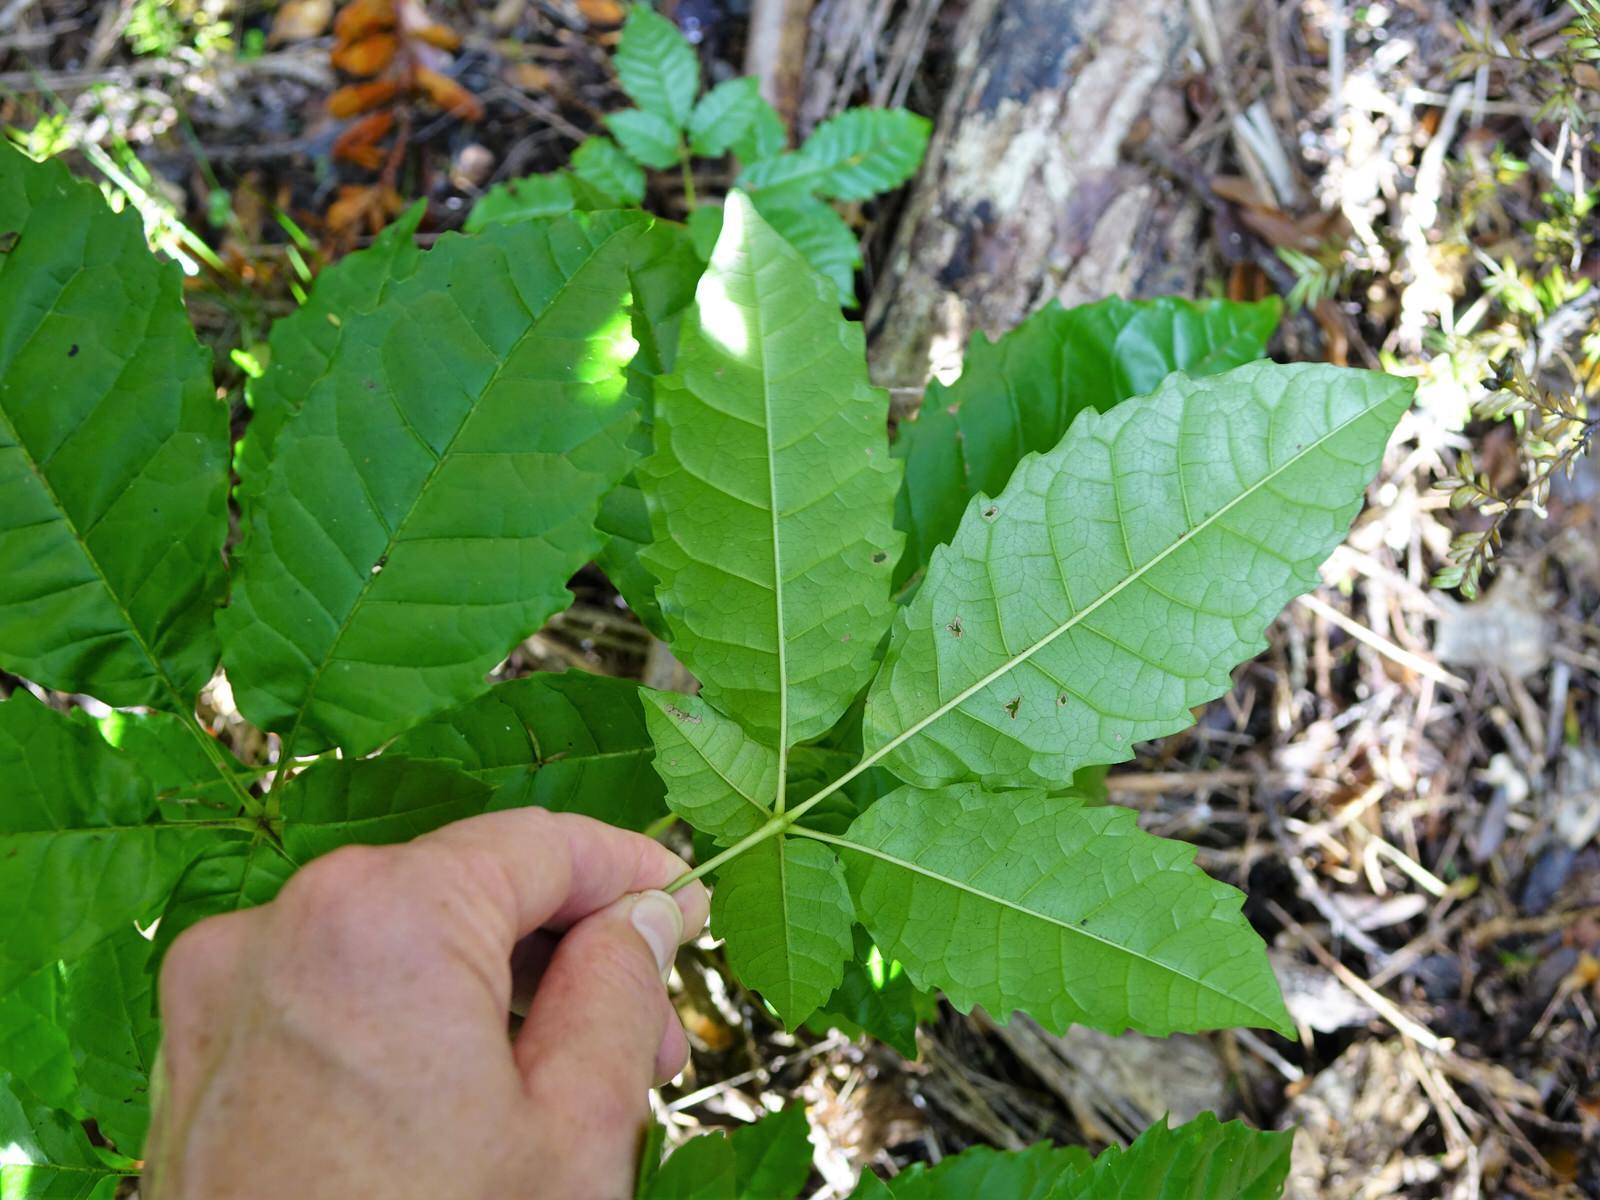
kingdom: Plantae
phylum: Tracheophyta
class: Magnoliopsida
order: Lamiales
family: Lamiaceae
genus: Vitex
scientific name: Vitex lucens
